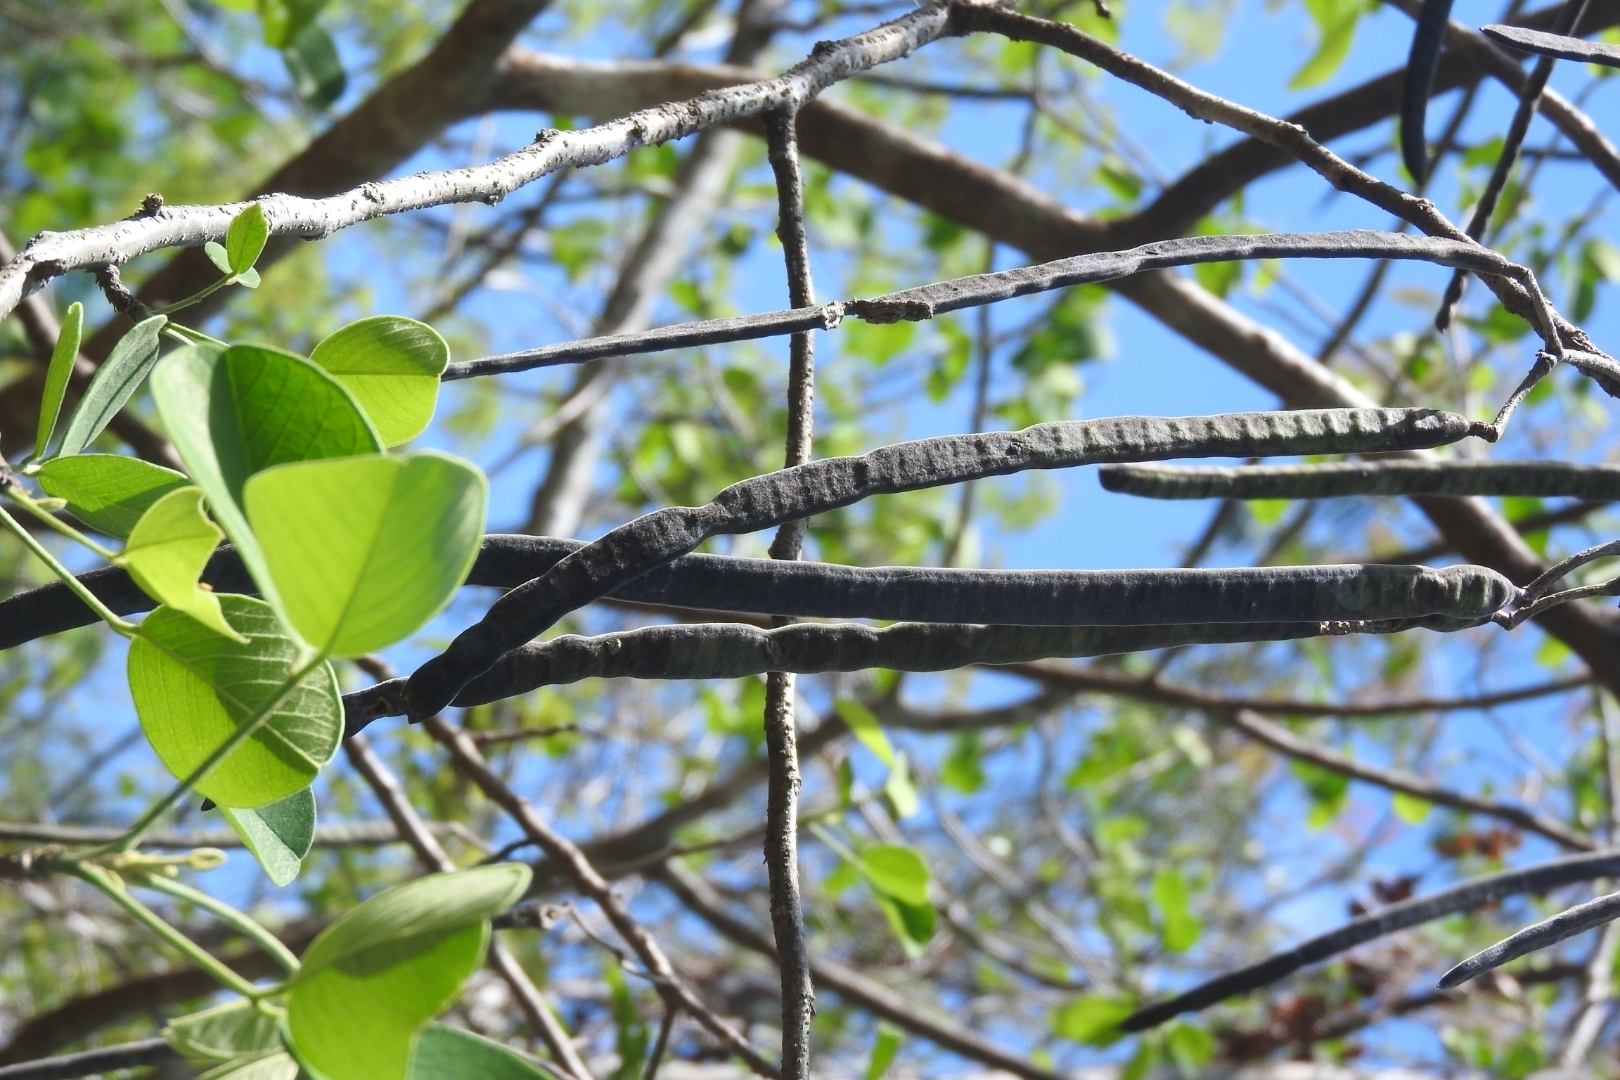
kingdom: Plantae
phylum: Tracheophyta
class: Magnoliopsida
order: Fabales
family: Fabaceae
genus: Senna
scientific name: Senna atomaria
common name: Flor de san jose
